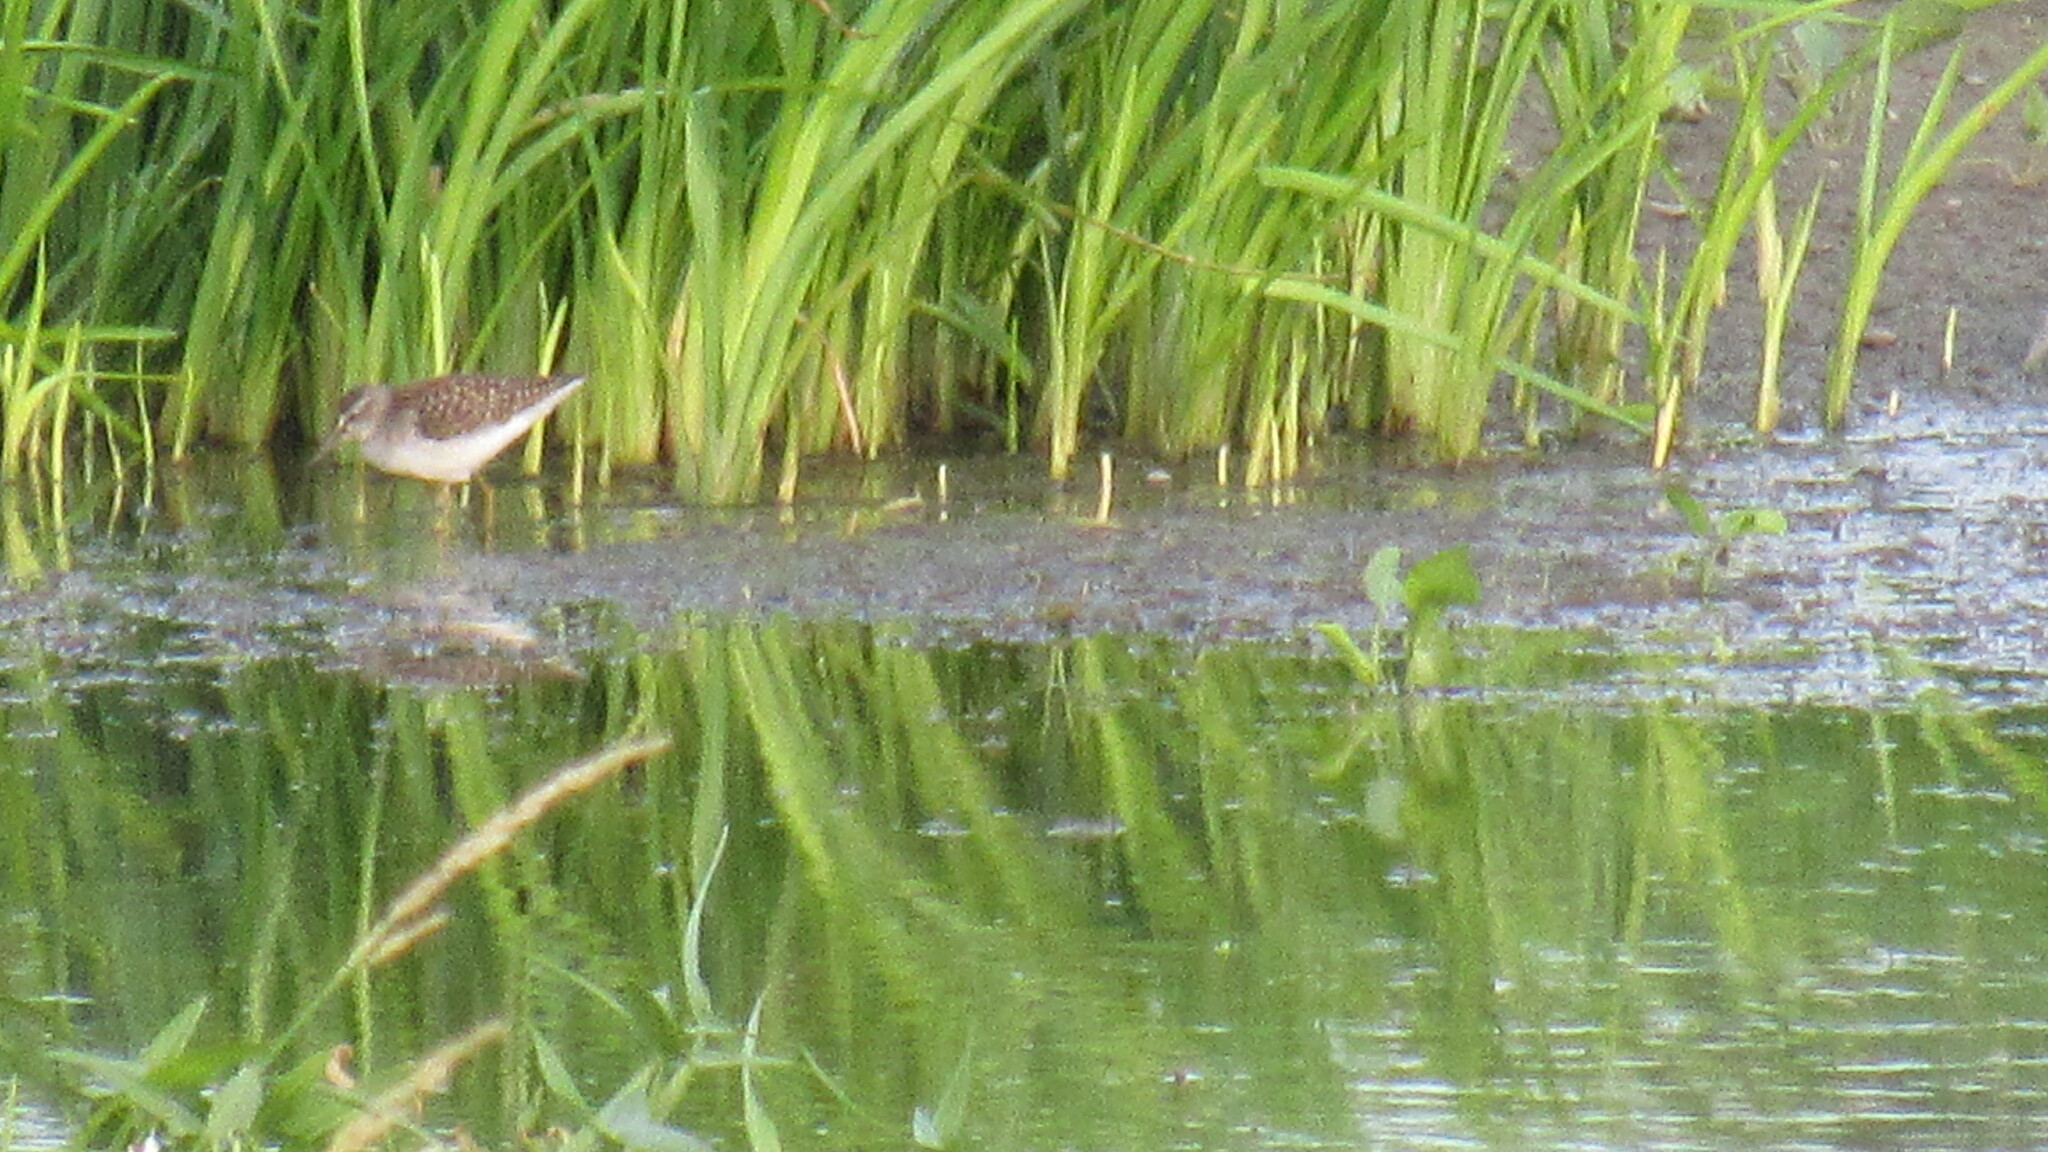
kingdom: Animalia
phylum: Chordata
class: Aves
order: Charadriiformes
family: Scolopacidae
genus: Tringa
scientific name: Tringa glareola
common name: Wood sandpiper
